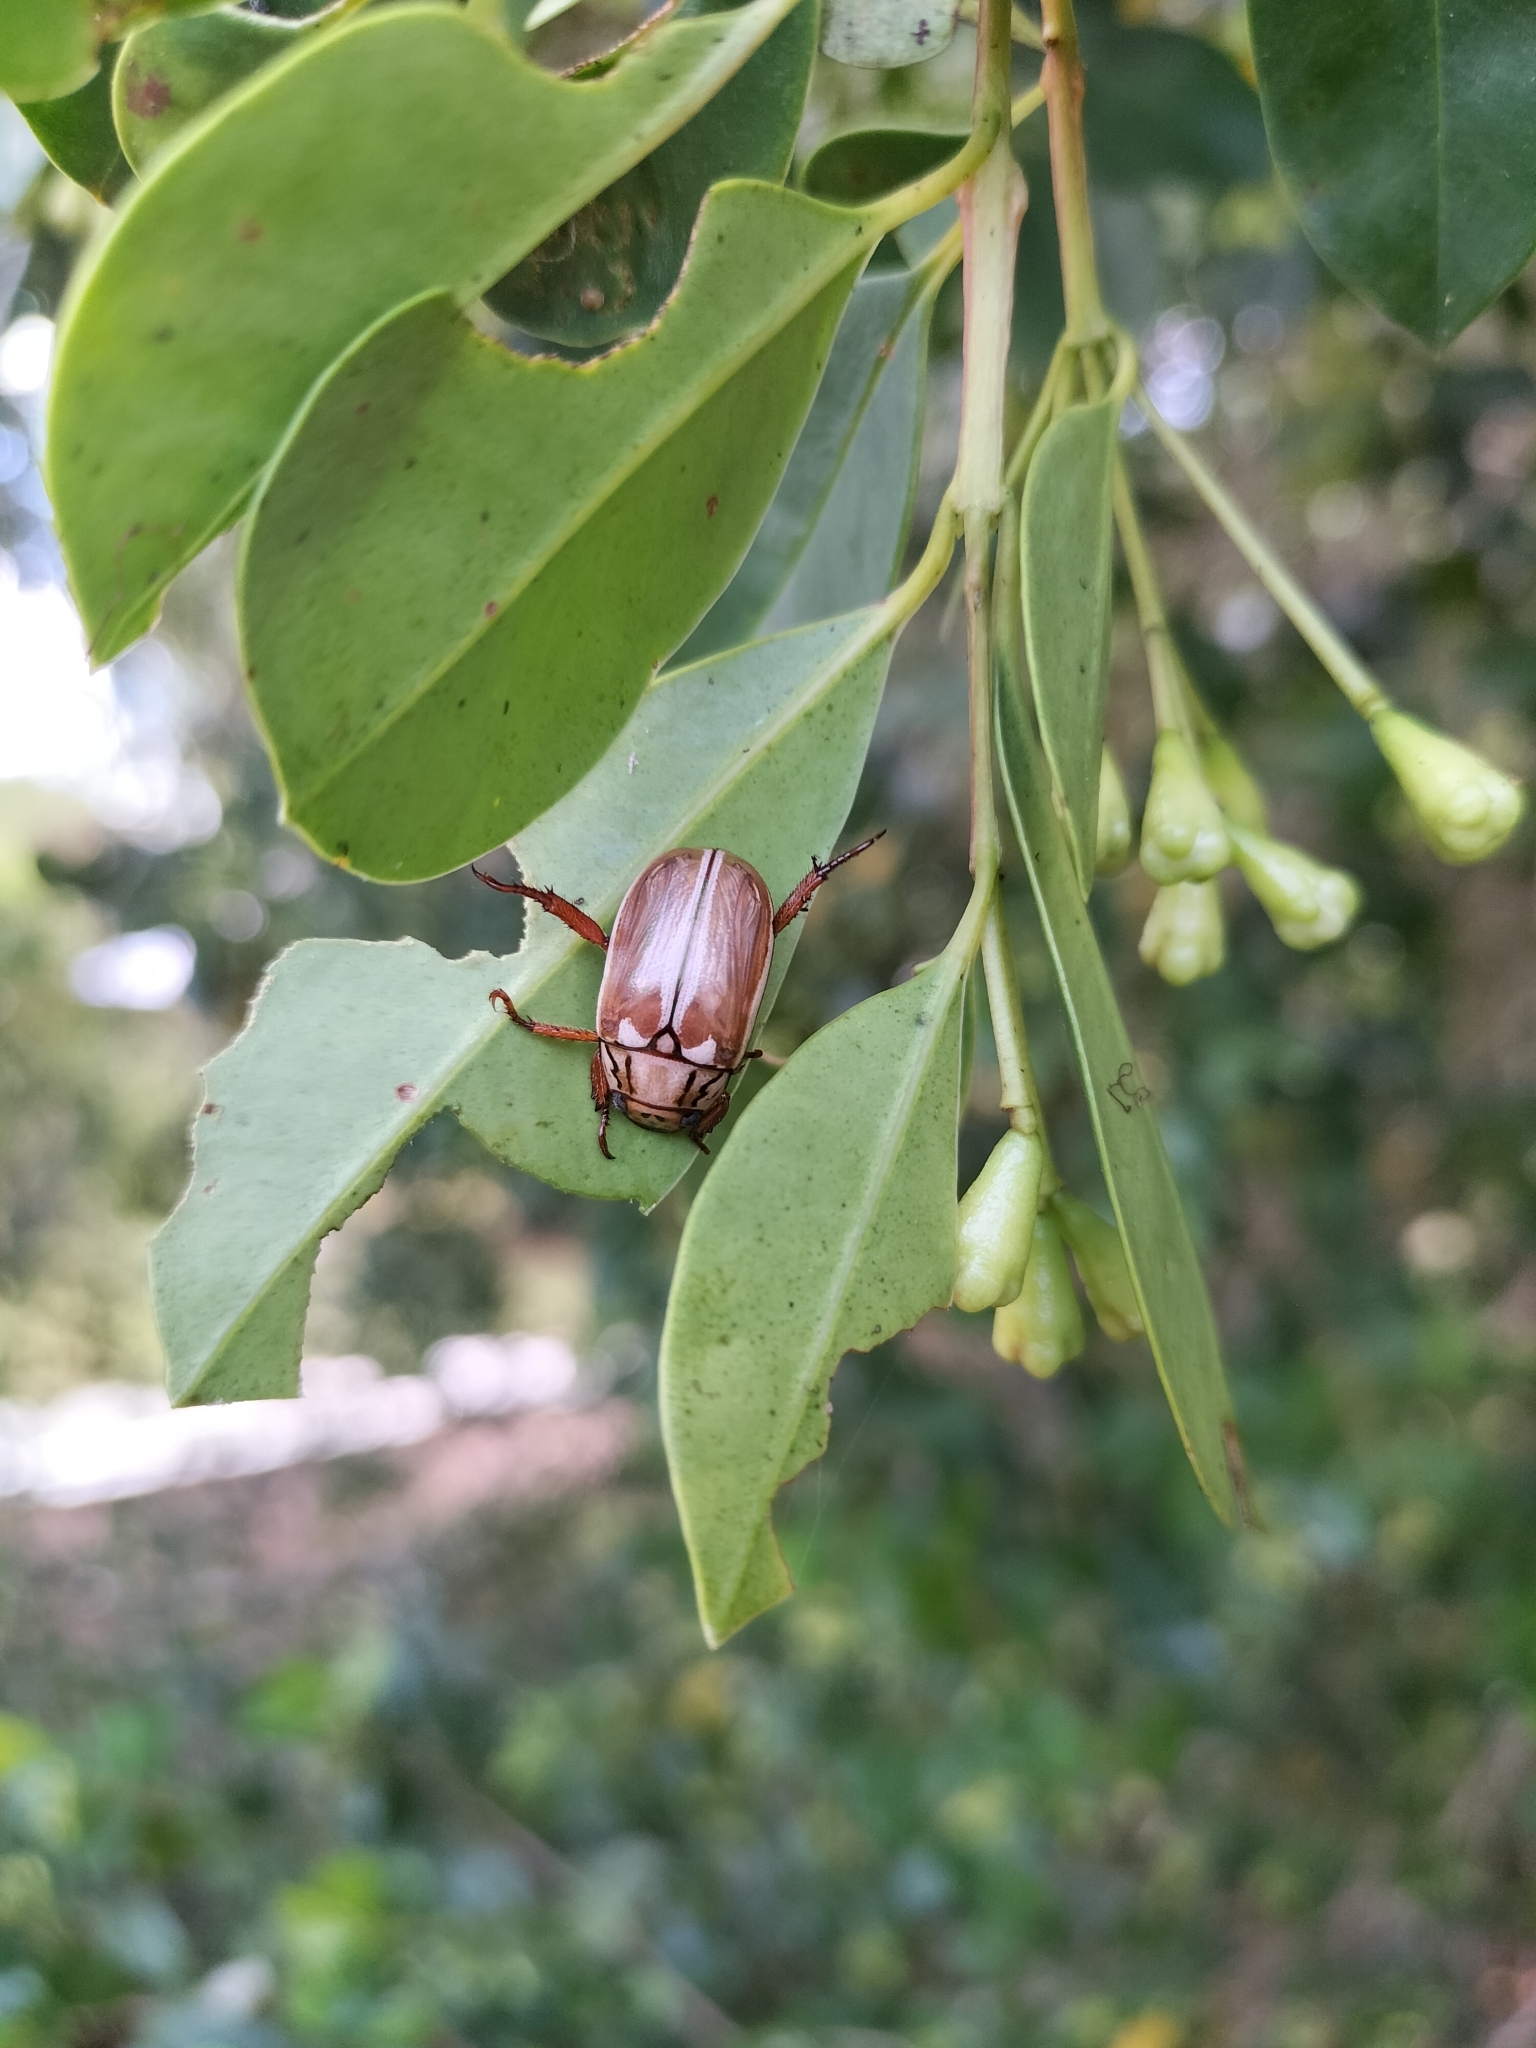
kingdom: Animalia
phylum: Arthropoda
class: Insecta
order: Coleoptera
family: Scarabaeidae
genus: Anoplognathus
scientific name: Anoplognathus abnormis
